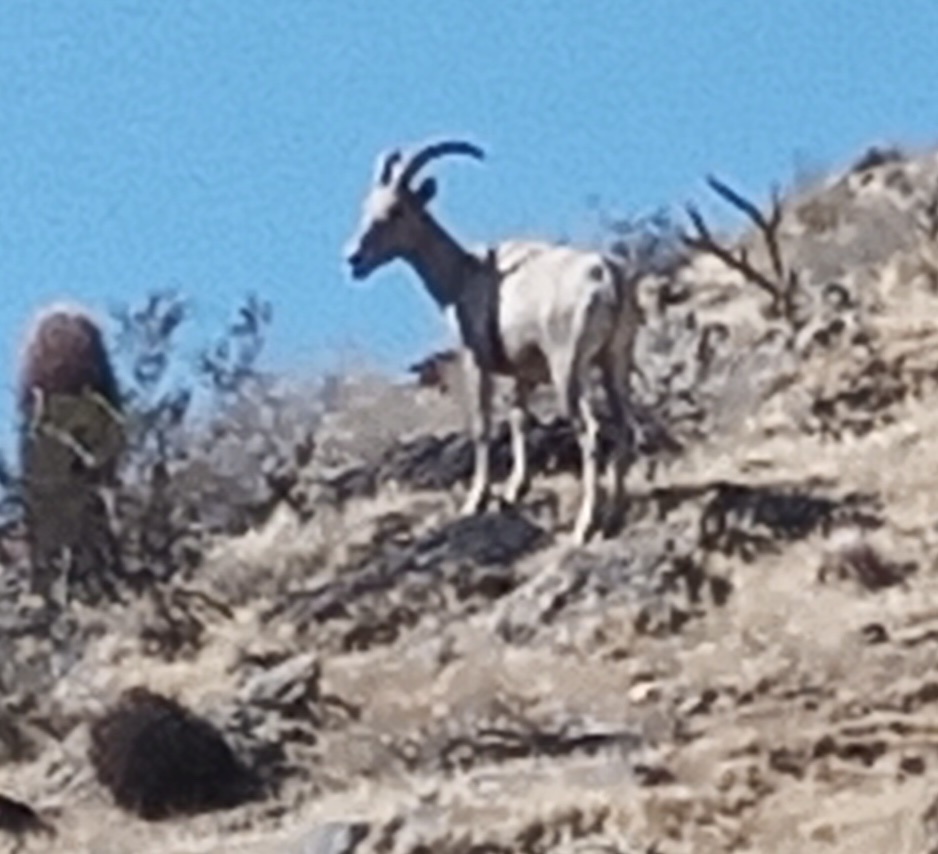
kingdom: Animalia
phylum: Chordata
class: Mammalia
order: Artiodactyla
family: Bovidae
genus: Ovis
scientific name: Ovis canadensis
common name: Bighorn sheep
